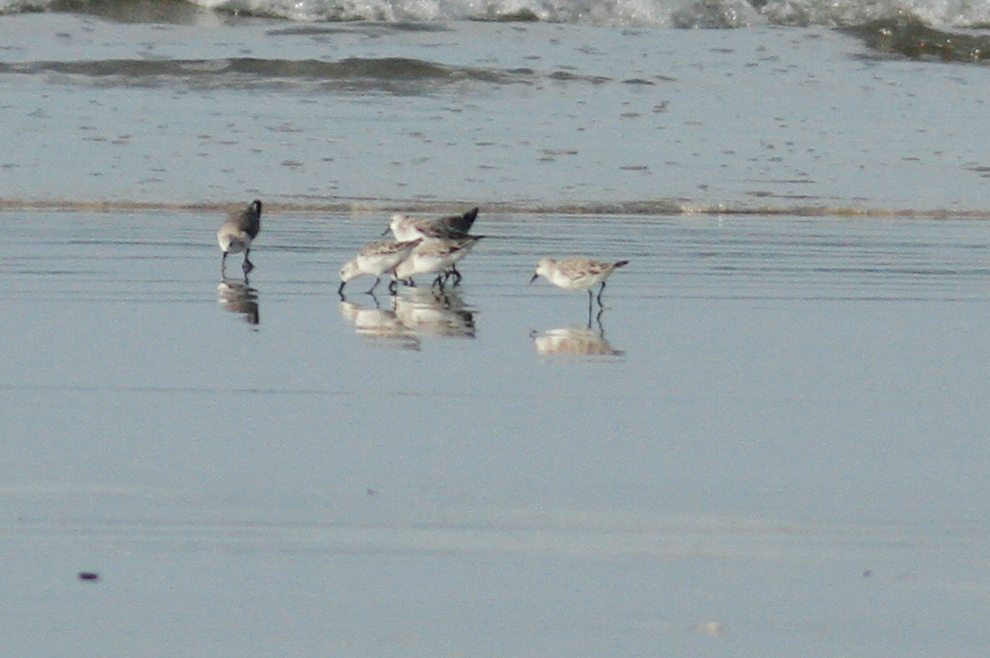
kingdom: Animalia
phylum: Chordata
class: Aves
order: Charadriiformes
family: Scolopacidae
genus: Calidris
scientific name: Calidris alba
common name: Sanderling
